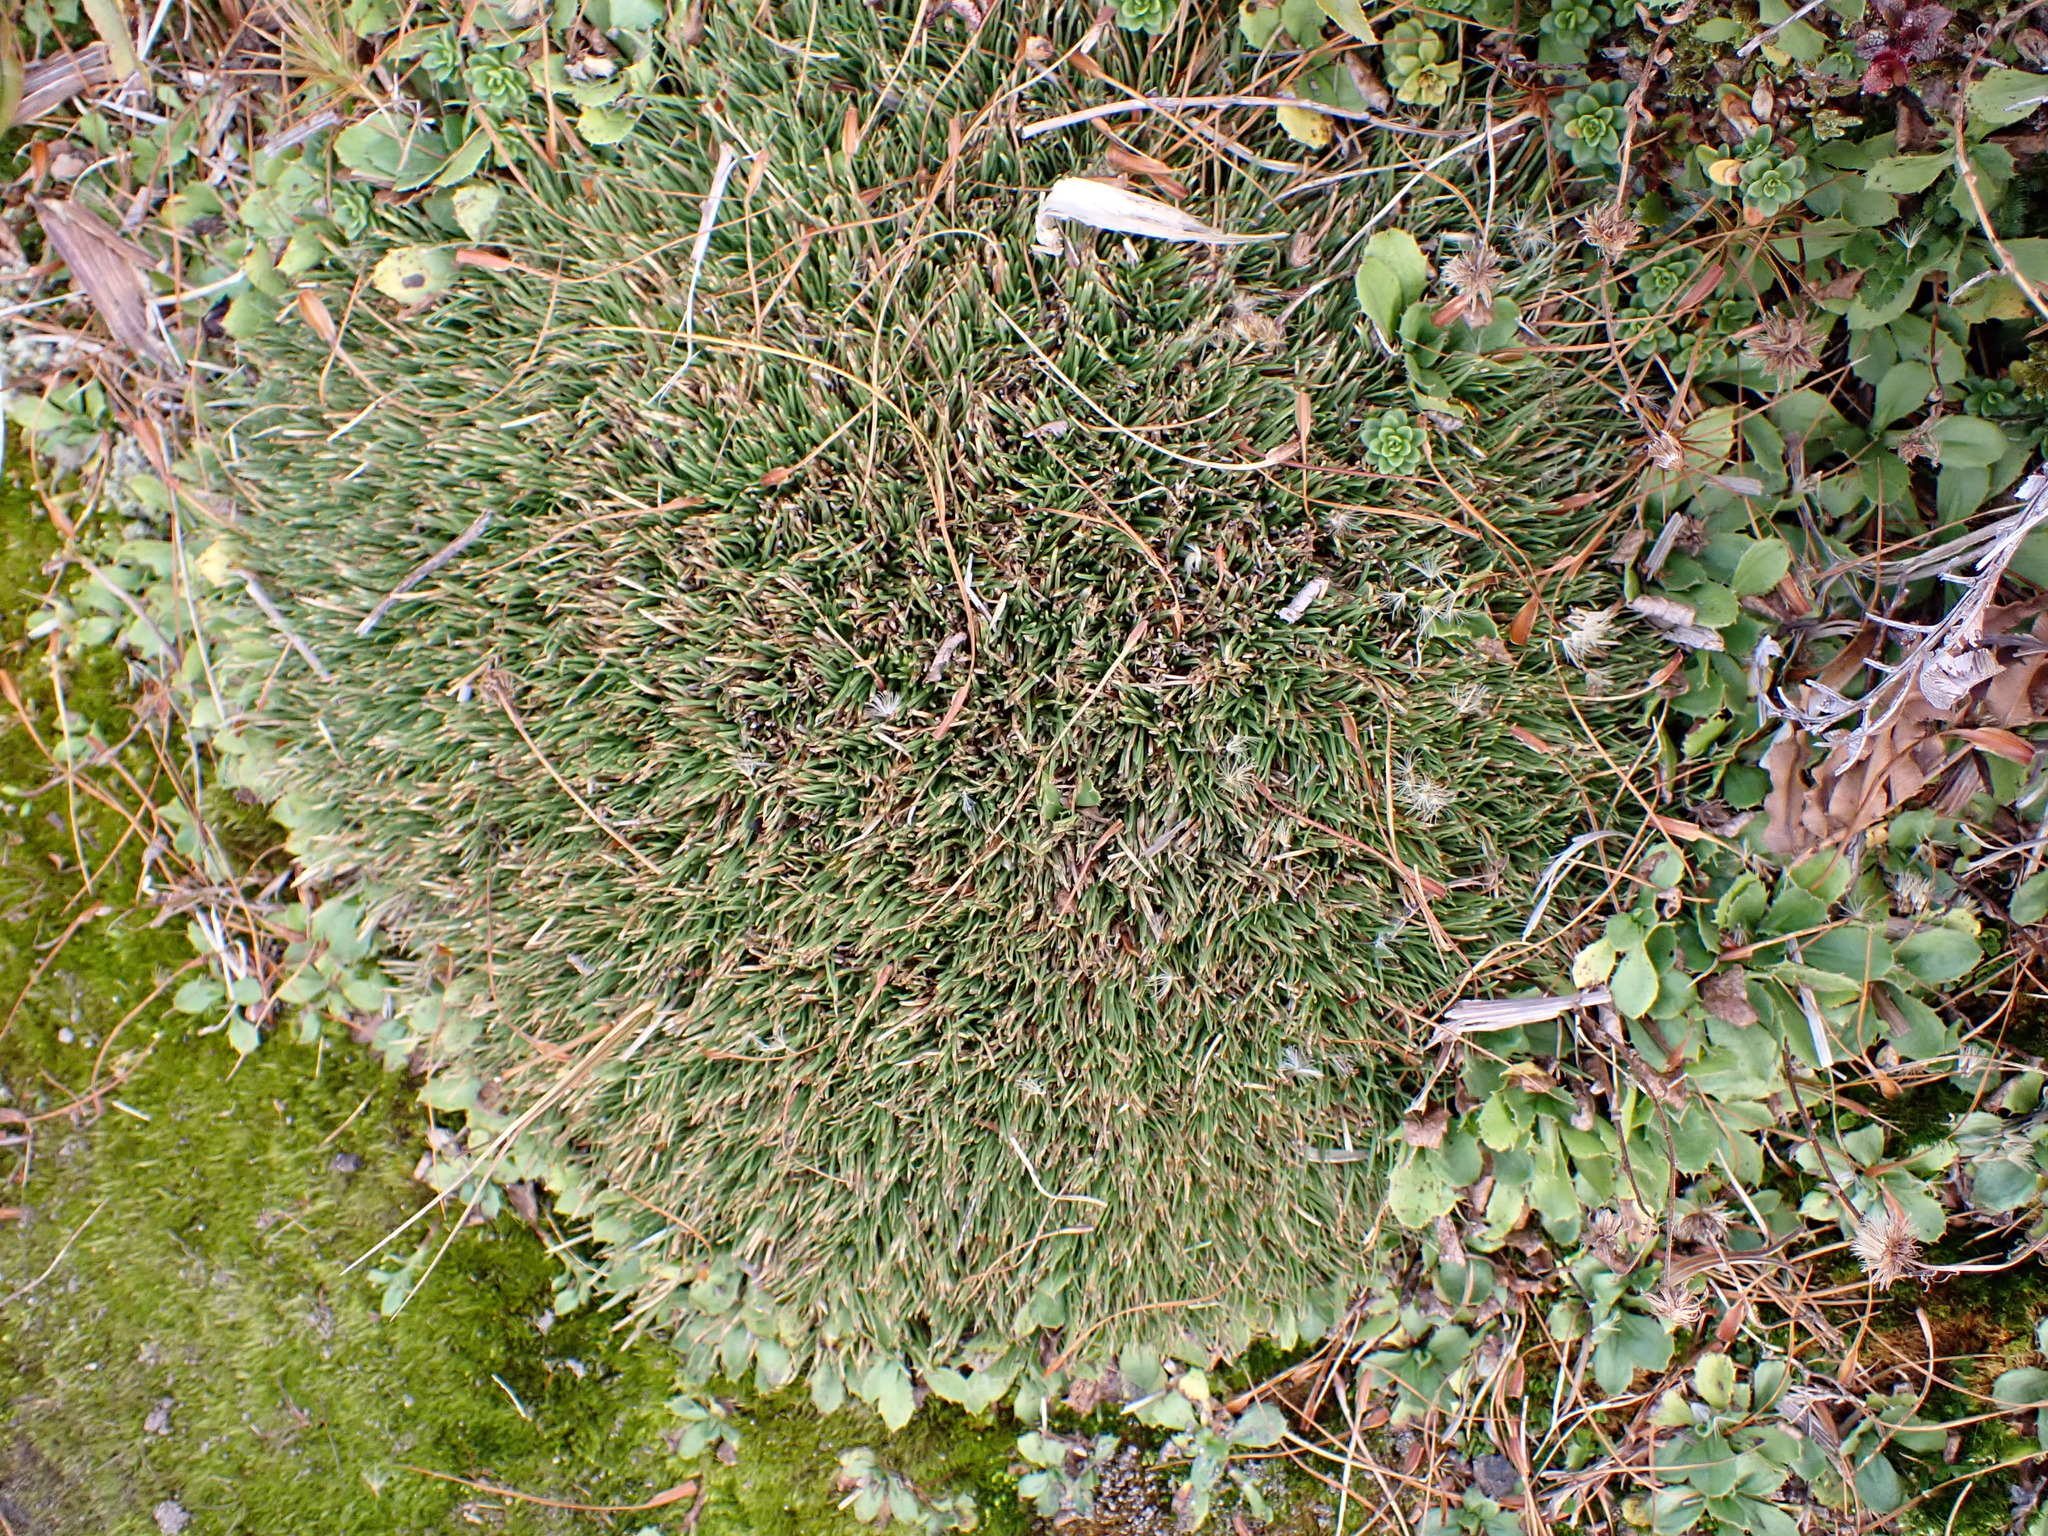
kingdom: Plantae
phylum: Tracheophyta
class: Liliopsida
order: Poales
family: Cyperaceae
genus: Oreobolus
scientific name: Oreobolus pectinatus
